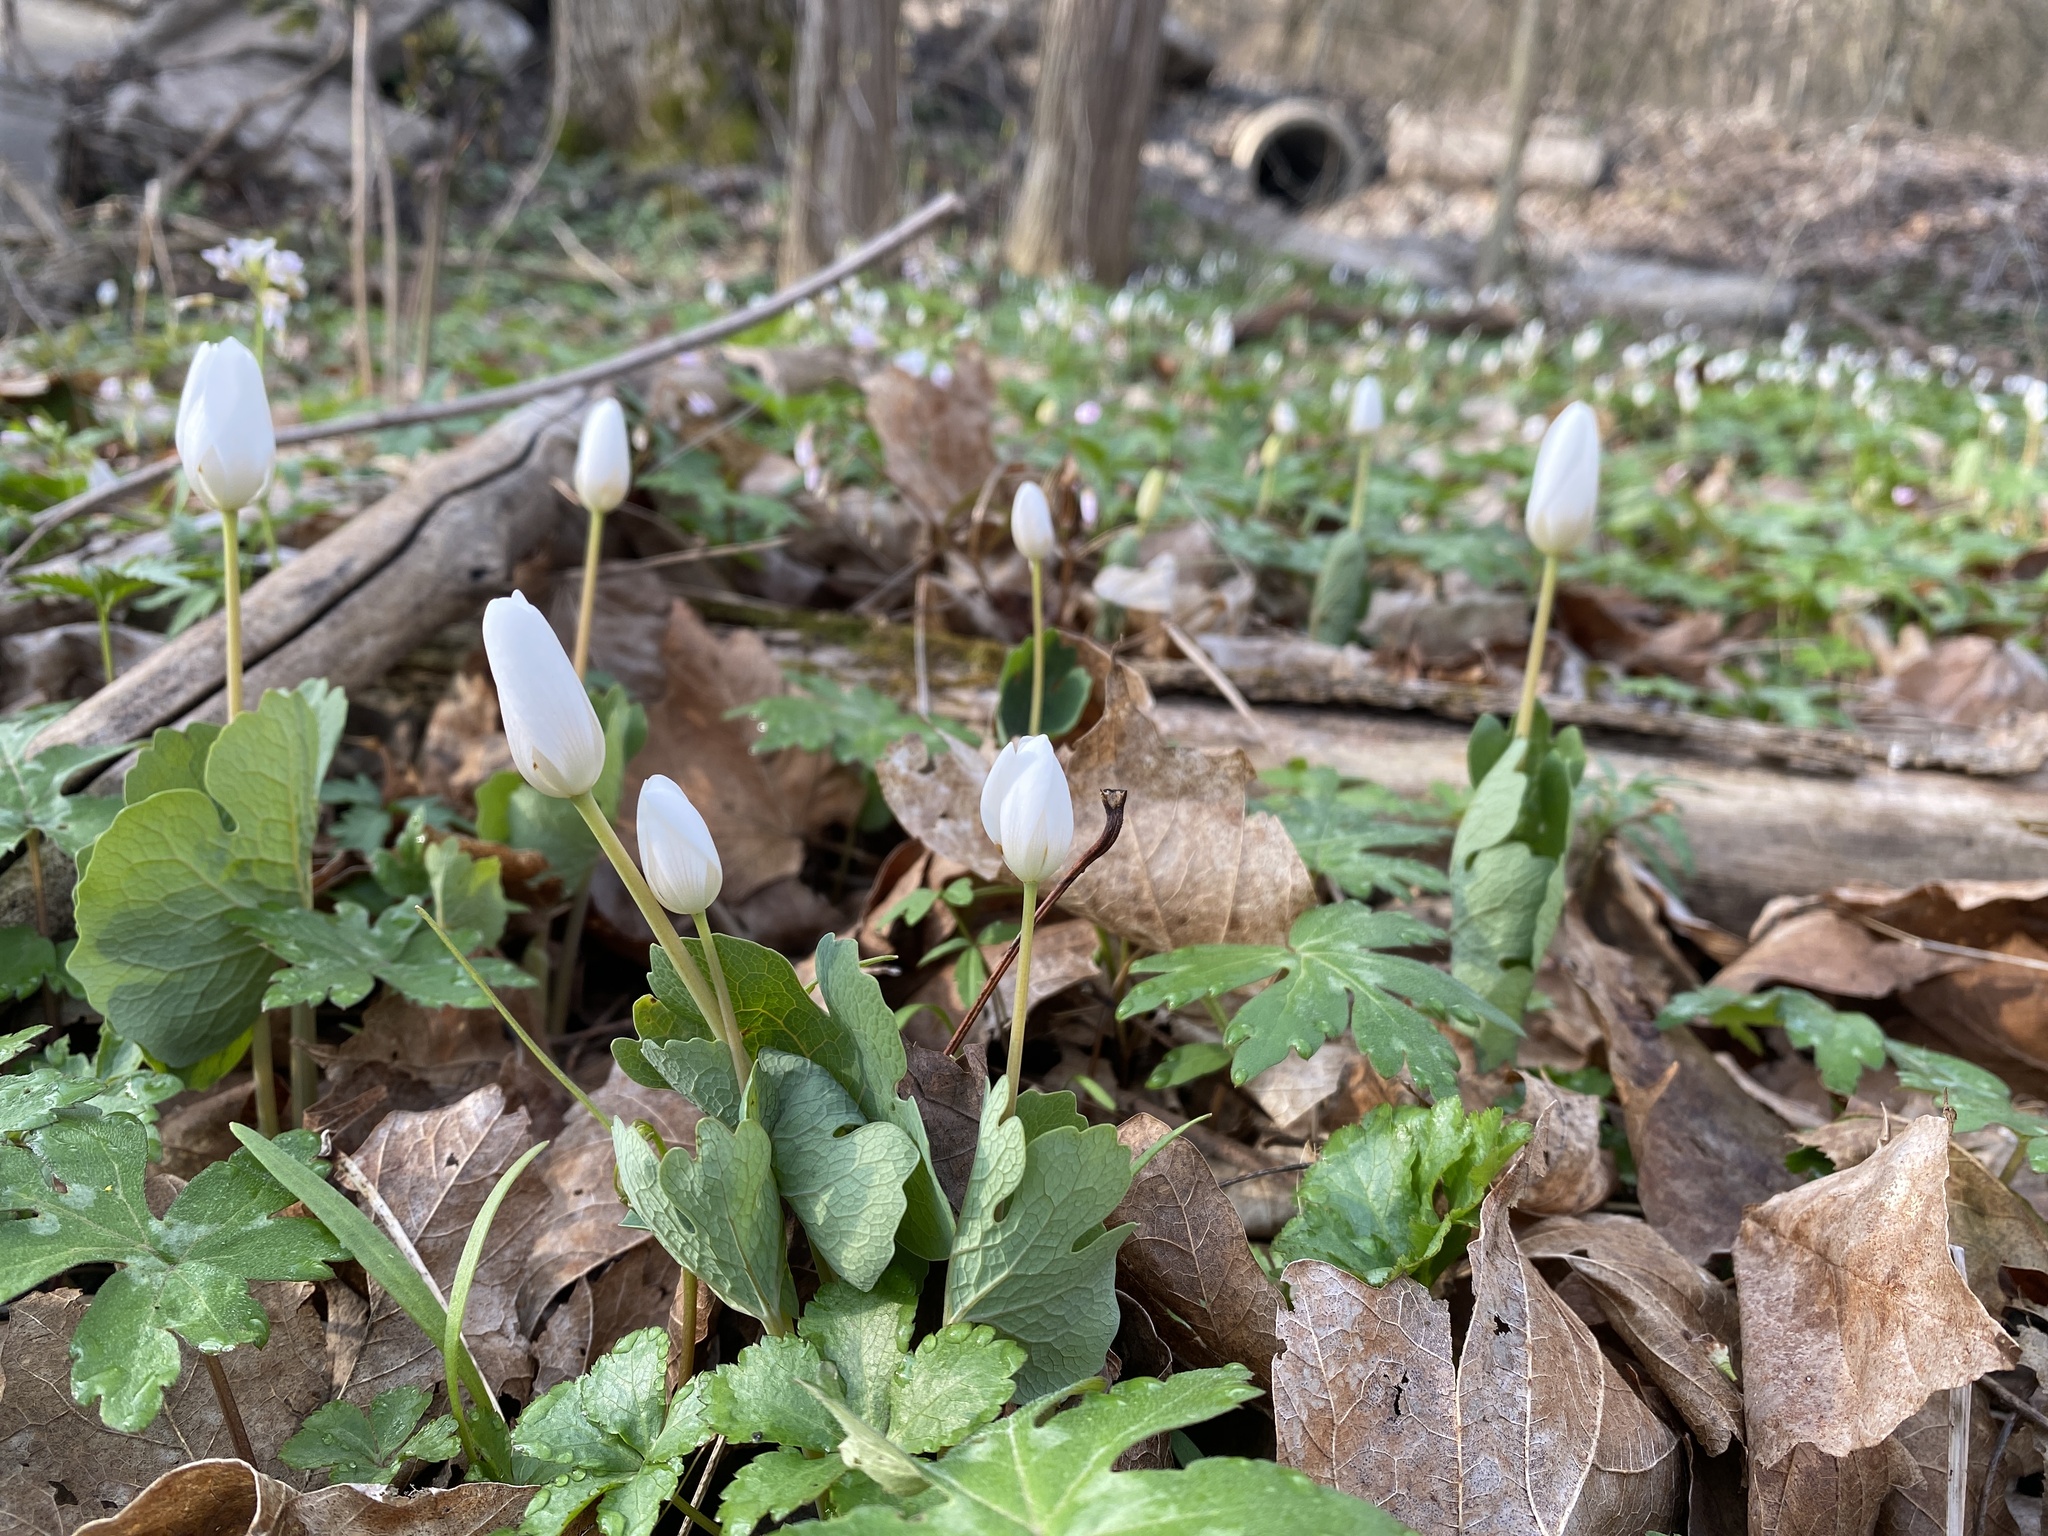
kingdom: Plantae
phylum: Tracheophyta
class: Magnoliopsida
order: Ranunculales
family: Papaveraceae
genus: Sanguinaria
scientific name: Sanguinaria canadensis
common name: Bloodroot
